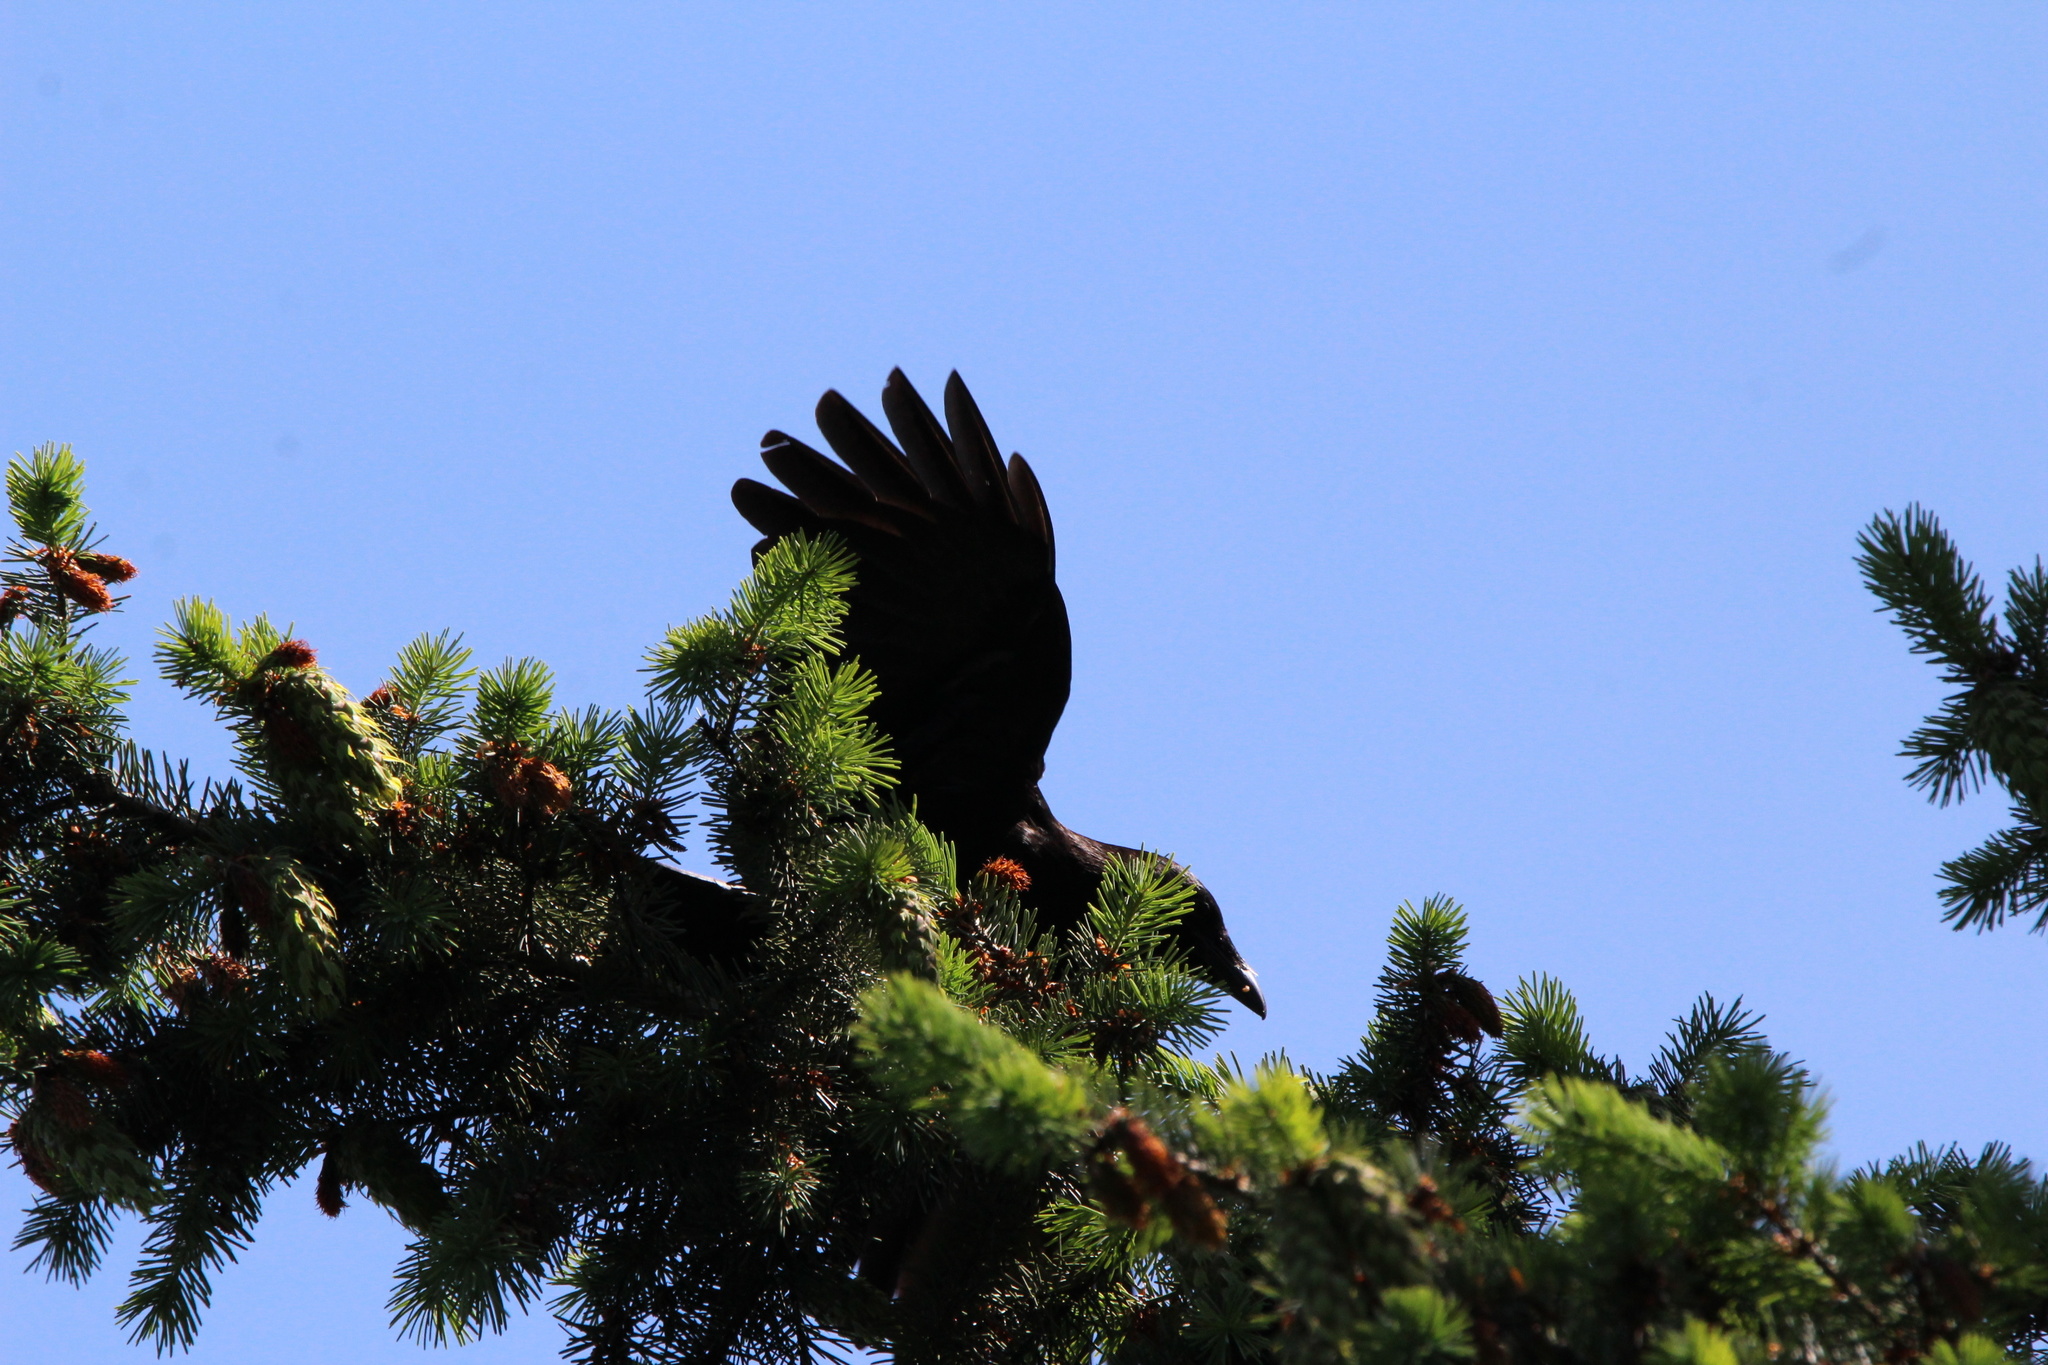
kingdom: Animalia
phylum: Chordata
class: Aves
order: Passeriformes
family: Corvidae
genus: Corvus
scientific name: Corvus brachyrhynchos
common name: American crow
